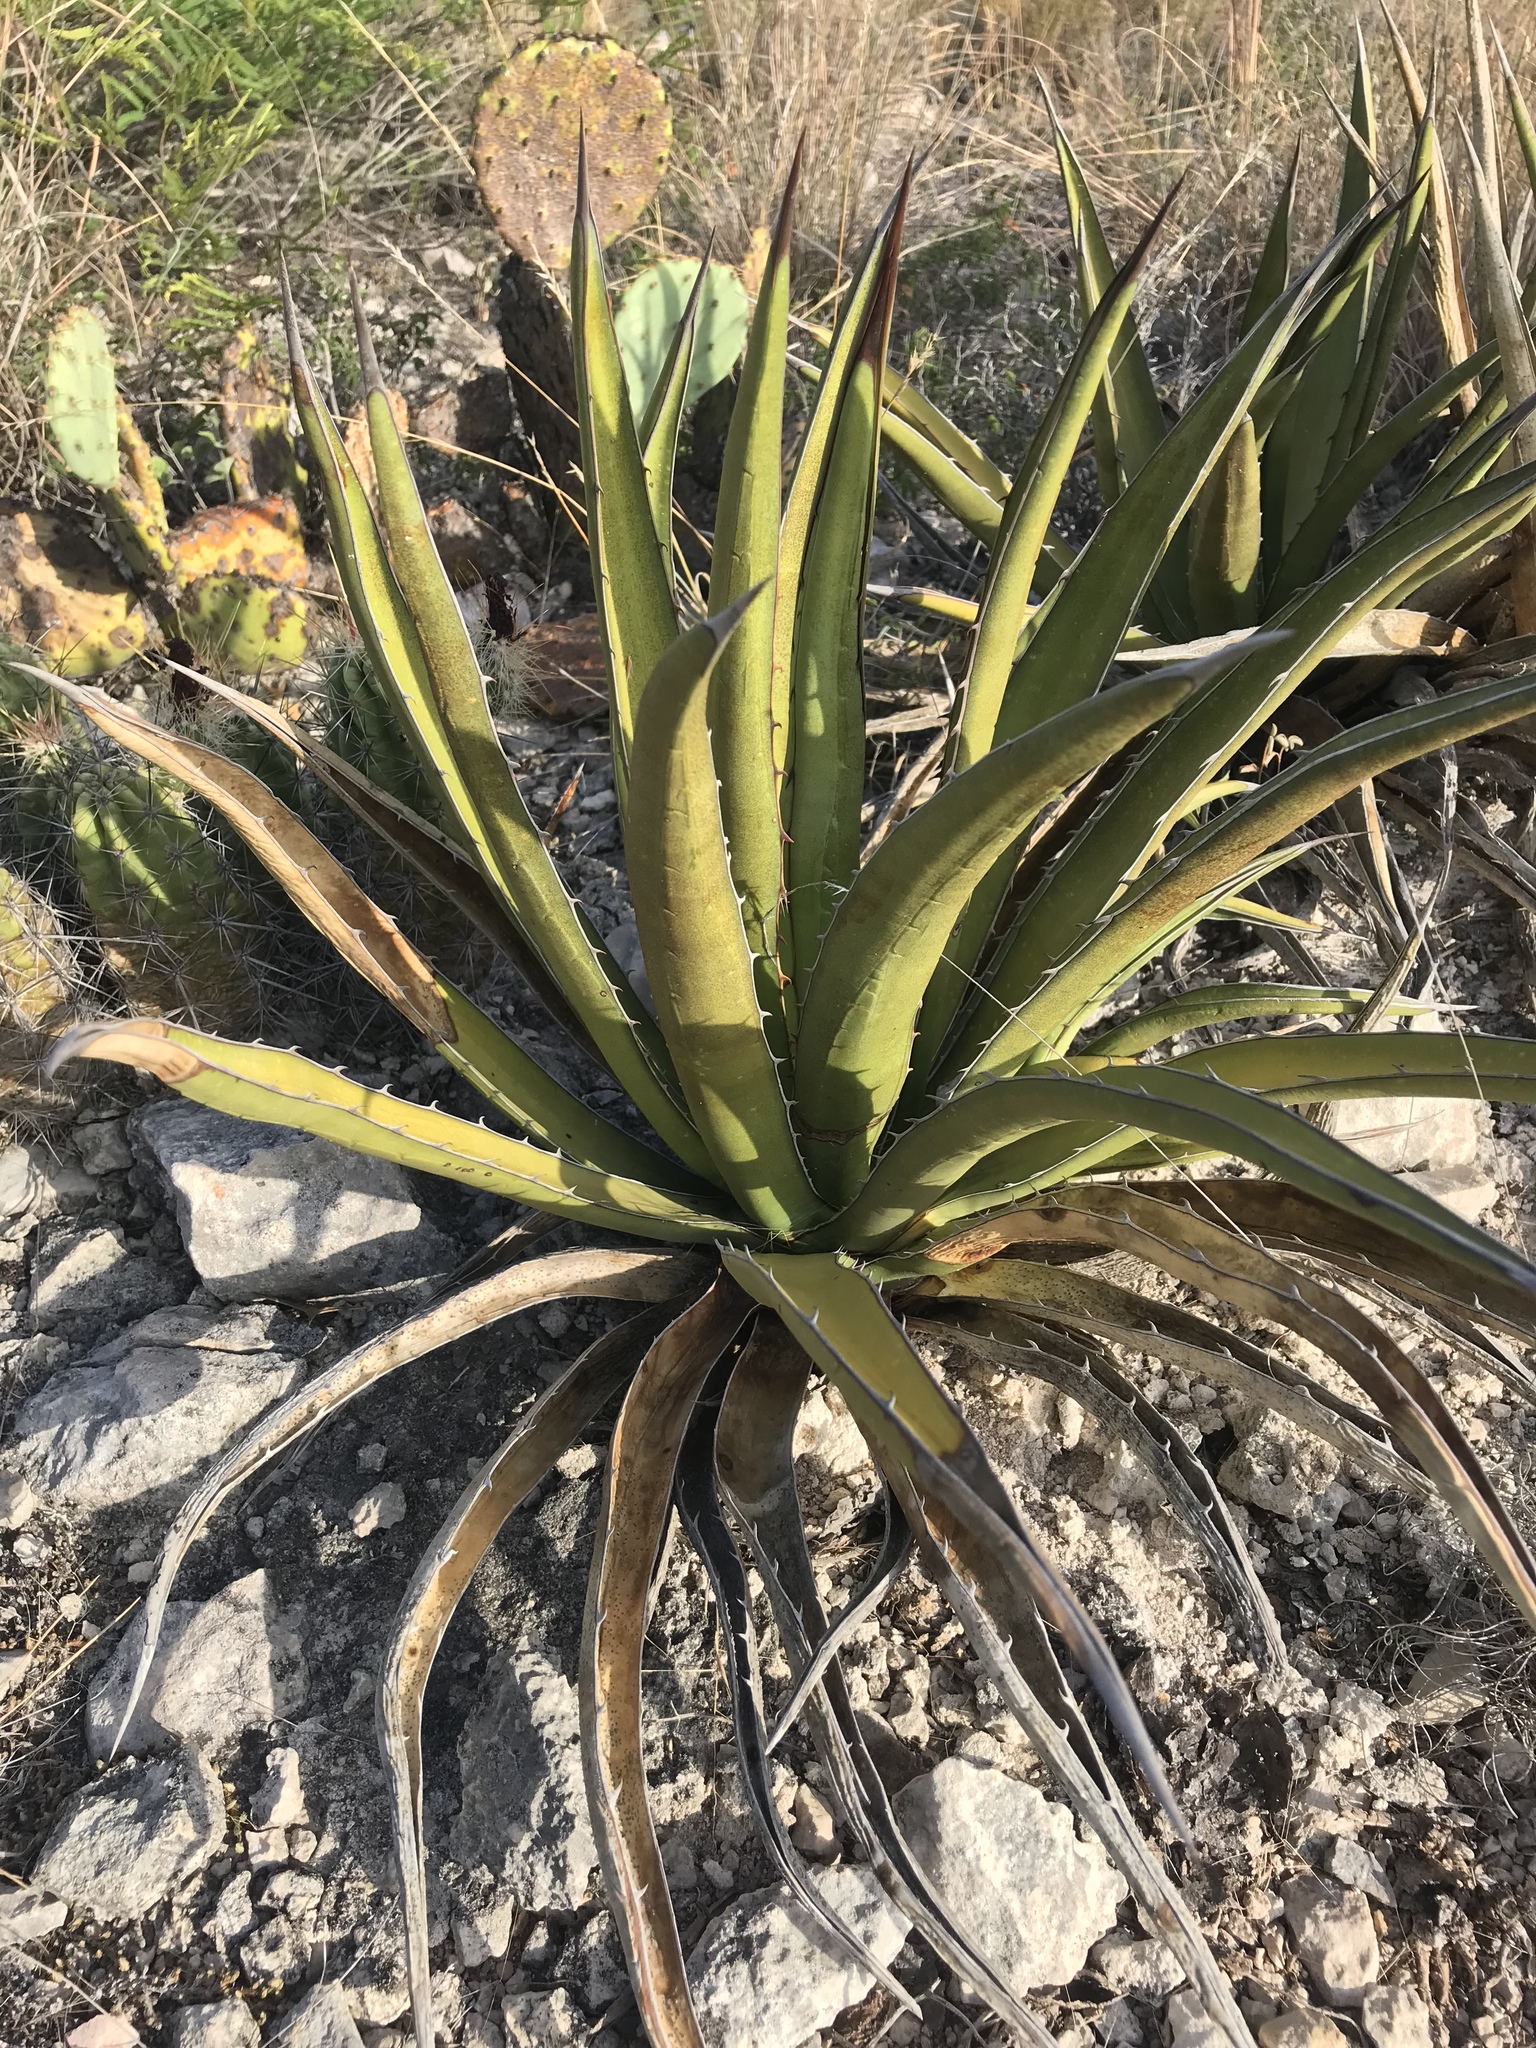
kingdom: Plantae
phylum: Tracheophyta
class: Liliopsida
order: Asparagales
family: Asparagaceae
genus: Agave
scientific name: Agave lechuguilla
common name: Lecheguilla agave
